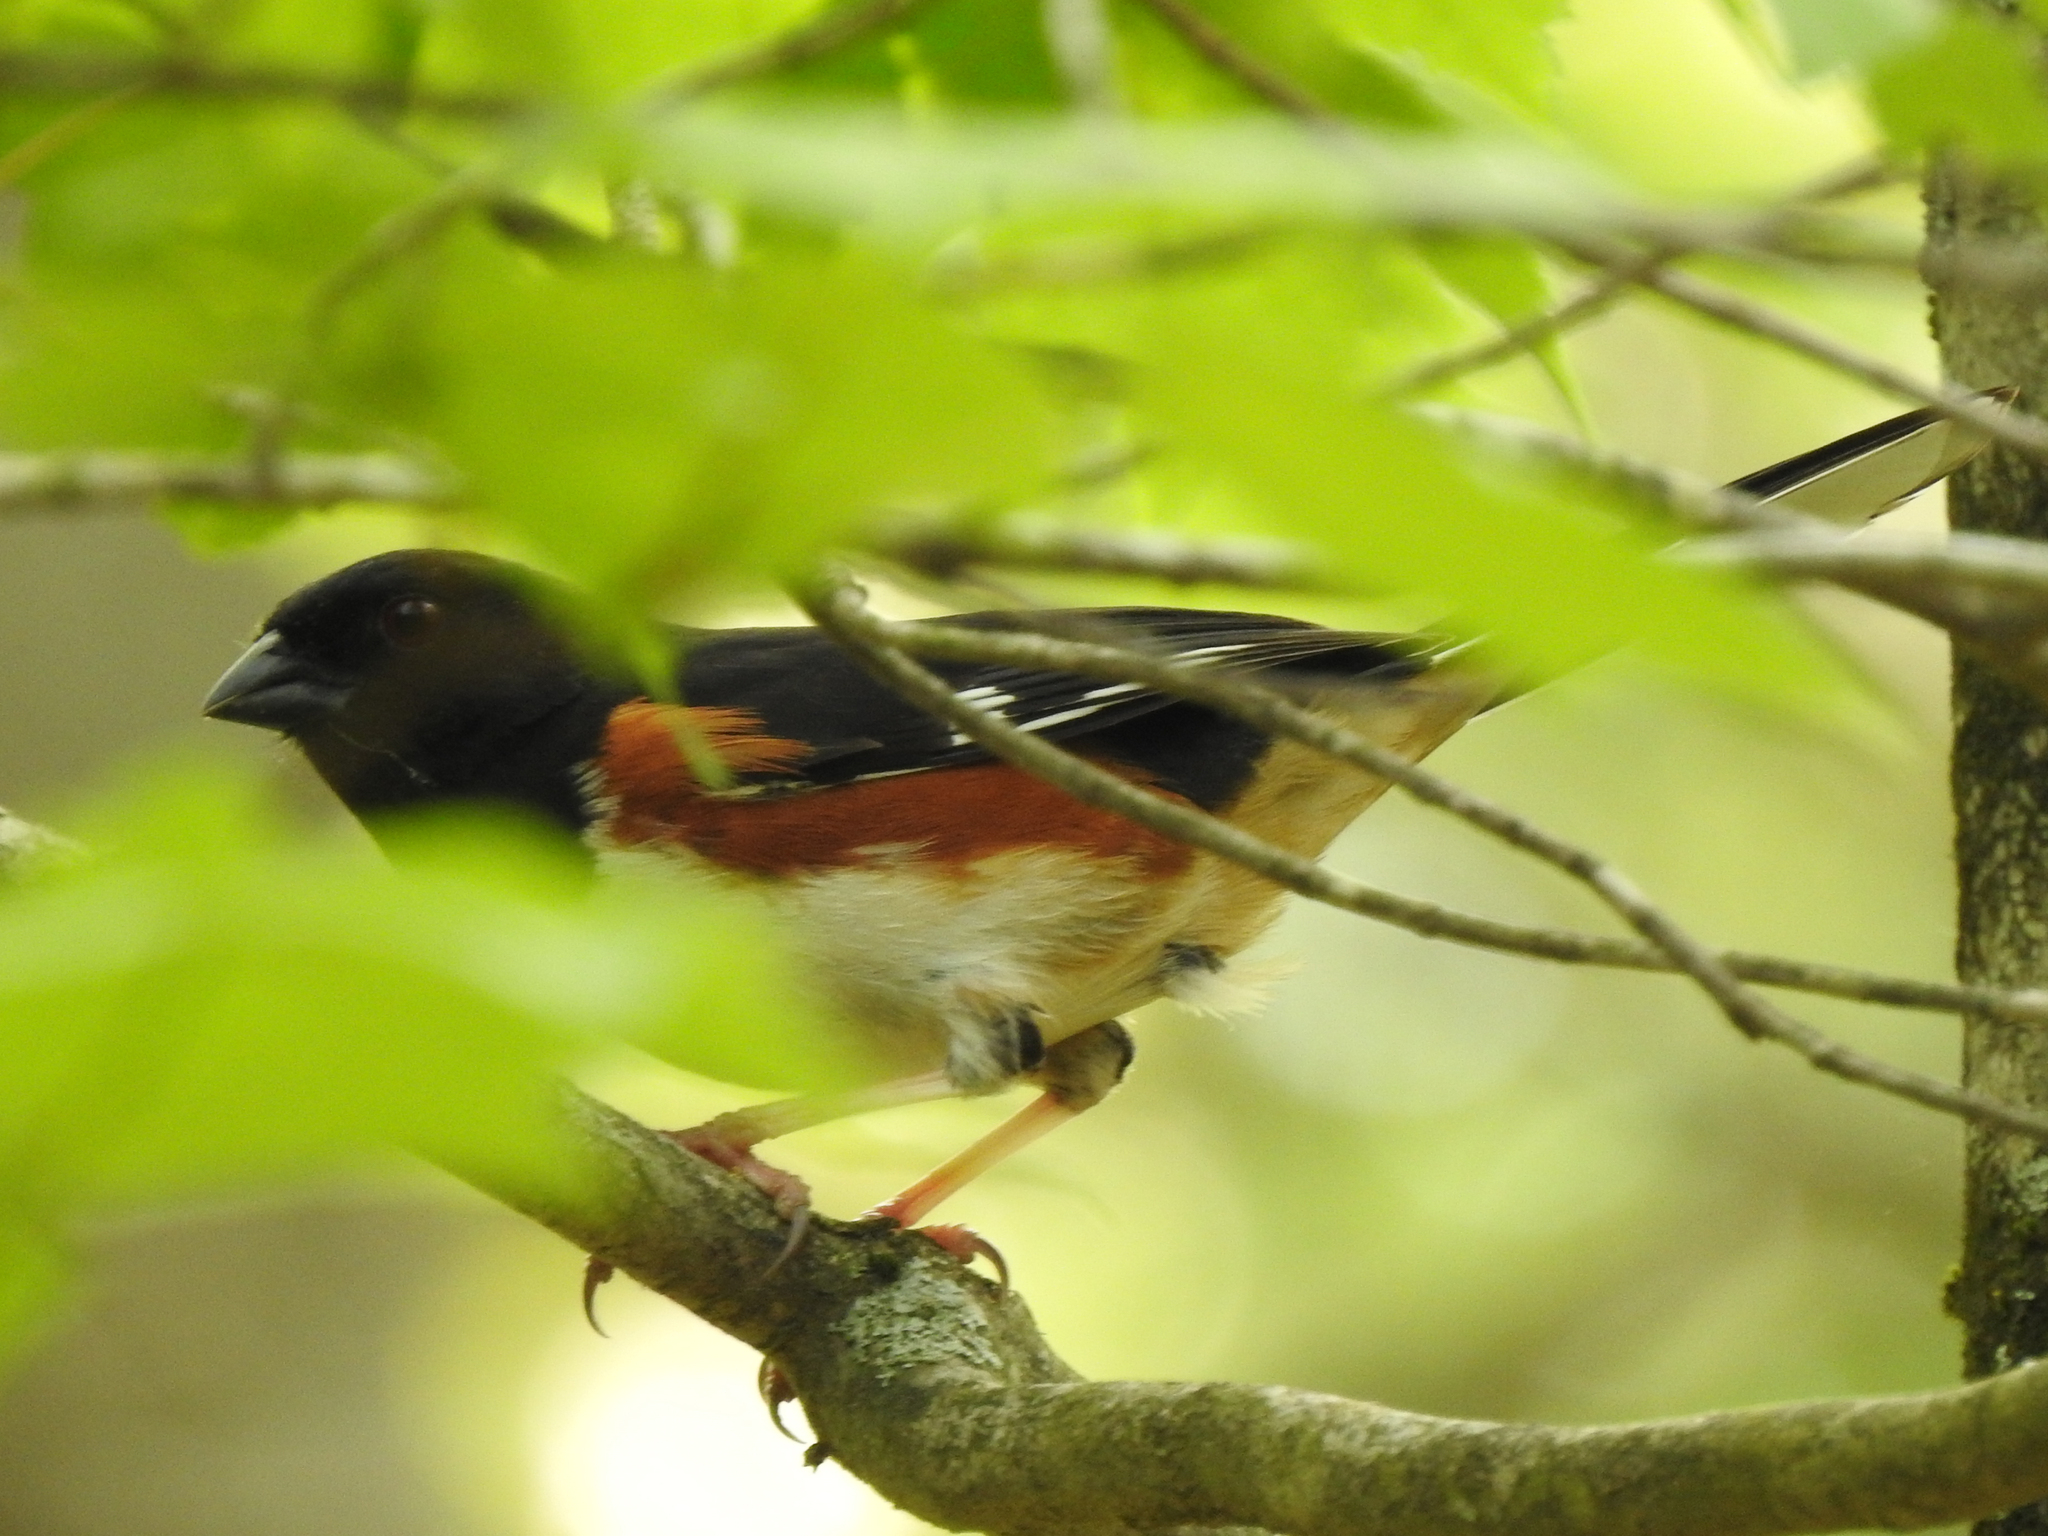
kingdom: Animalia
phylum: Chordata
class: Aves
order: Passeriformes
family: Cardinalidae
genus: Pheucticus
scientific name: Pheucticus ludovicianus
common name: Rose-breasted grosbeak
